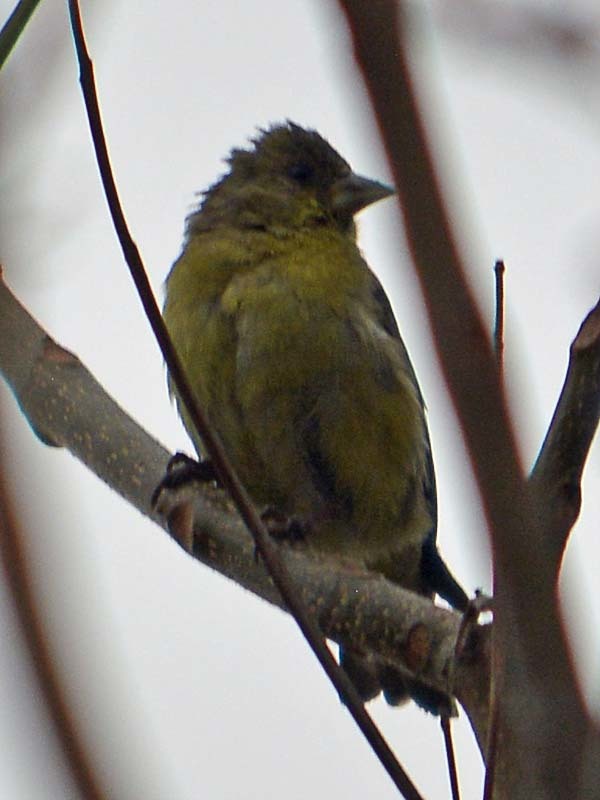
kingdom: Animalia
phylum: Chordata
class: Aves
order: Passeriformes
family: Fringillidae
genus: Spinus
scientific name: Spinus psaltria
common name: Lesser goldfinch
